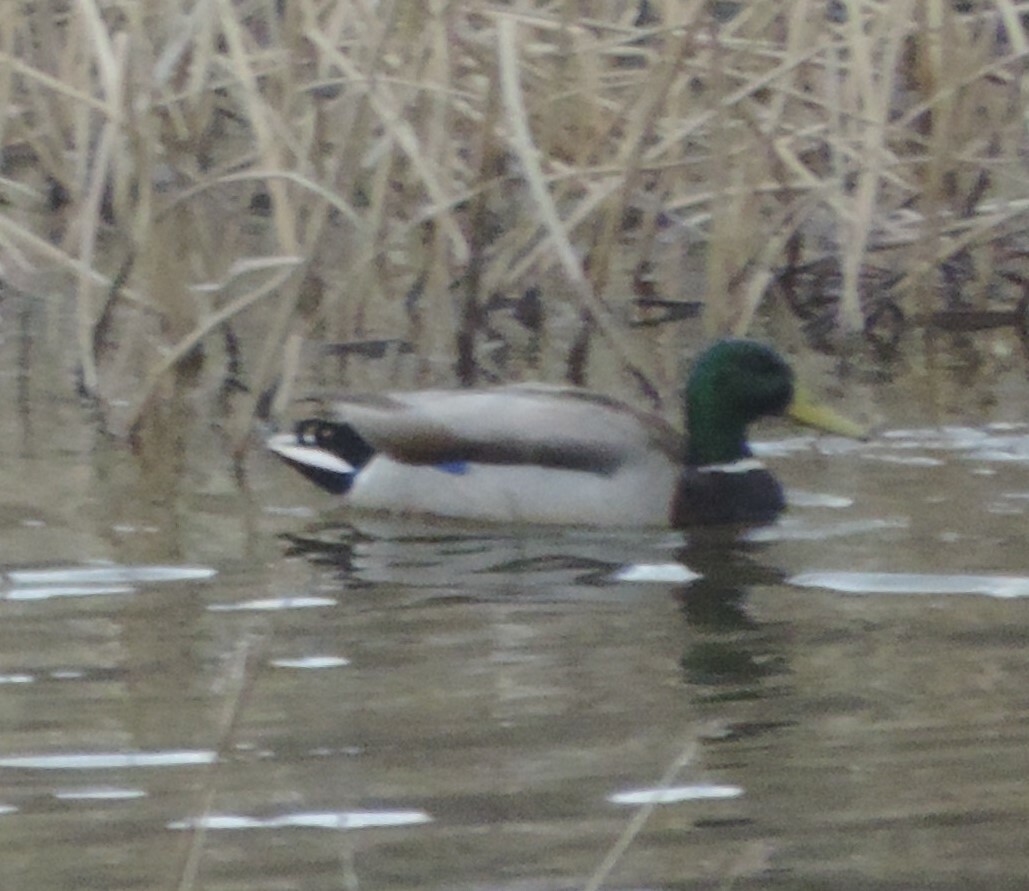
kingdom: Animalia
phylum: Chordata
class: Aves
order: Anseriformes
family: Anatidae
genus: Anas
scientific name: Anas platyrhynchos
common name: Mallard
